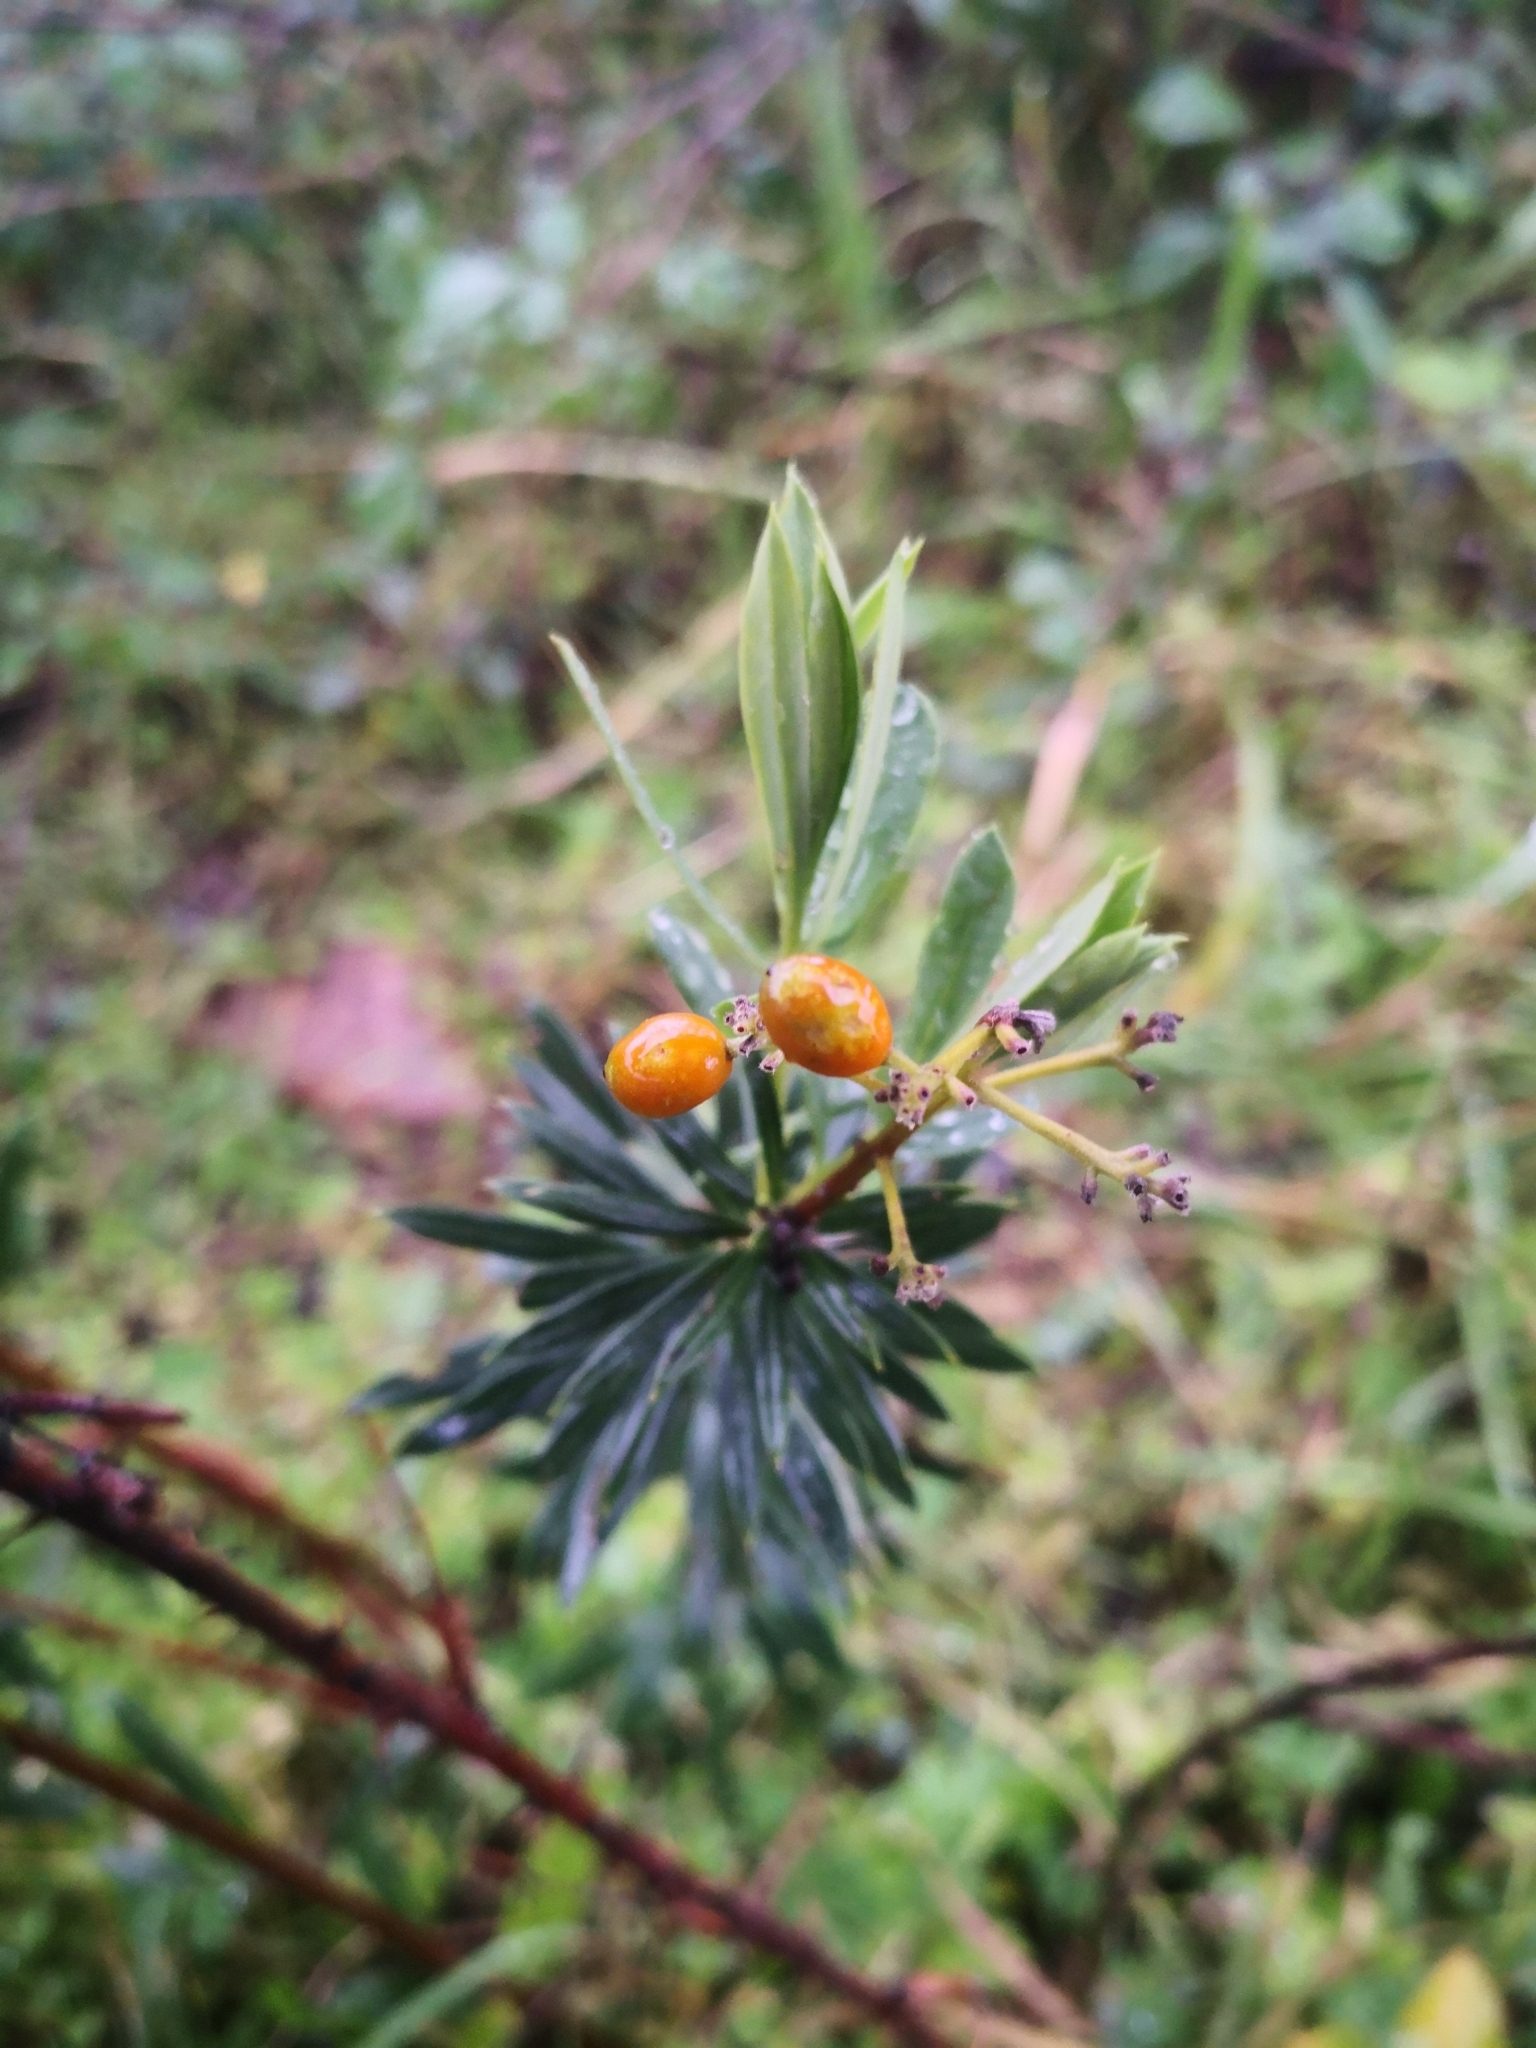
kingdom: Plantae
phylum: Tracheophyta
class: Magnoliopsida
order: Malvales
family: Thymelaeaceae
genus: Daphne
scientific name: Daphne gnidium
